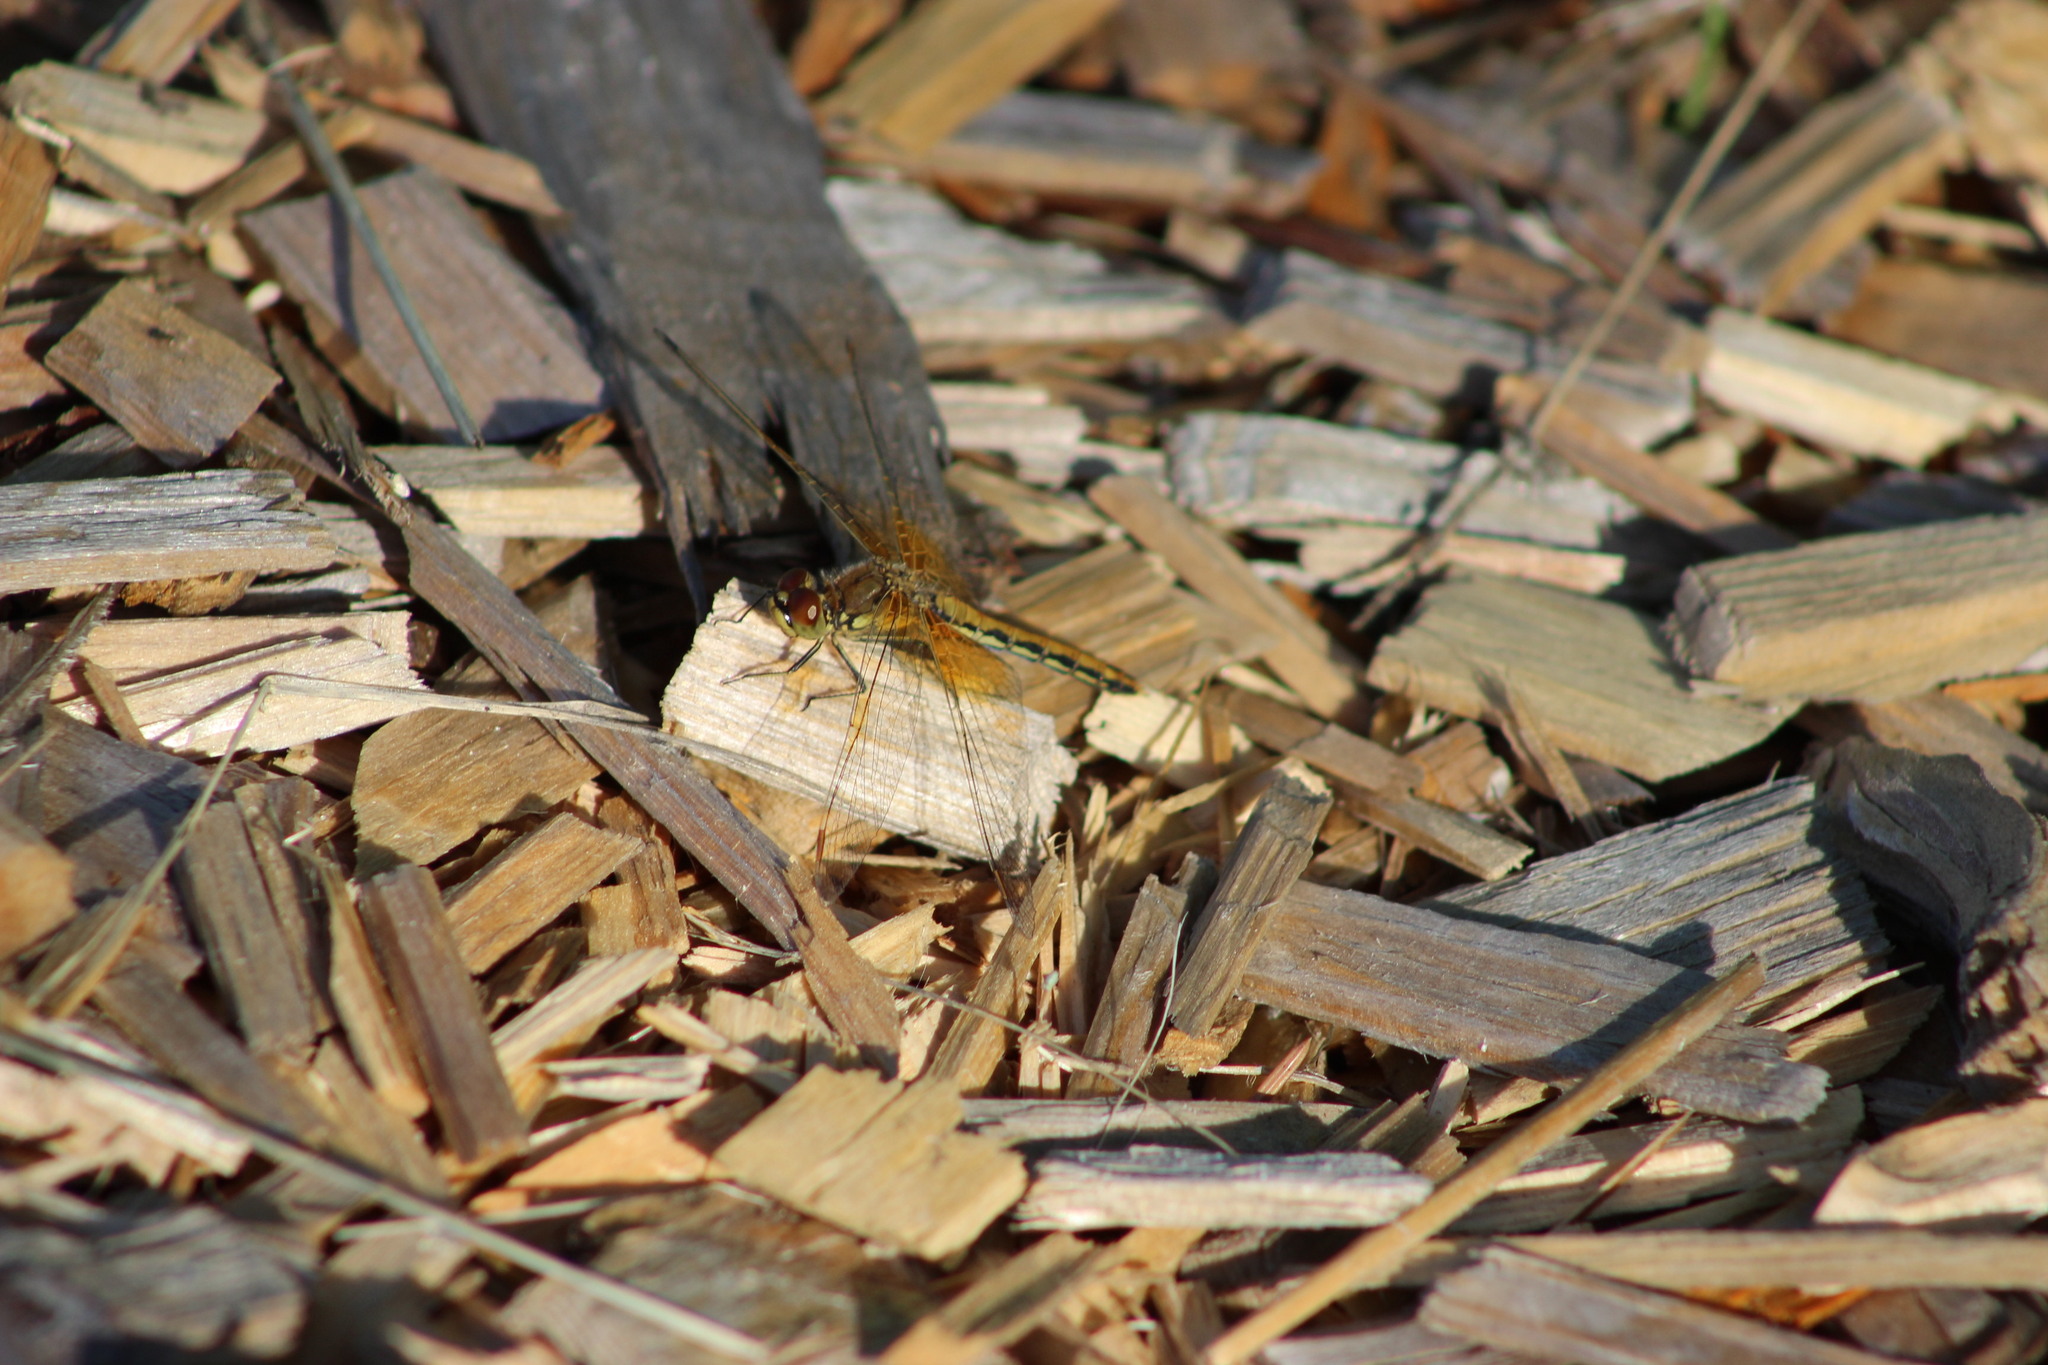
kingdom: Animalia
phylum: Arthropoda
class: Insecta
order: Odonata
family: Libellulidae
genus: Sympetrum
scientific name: Sympetrum flaveolum
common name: Yellow-winged darter
